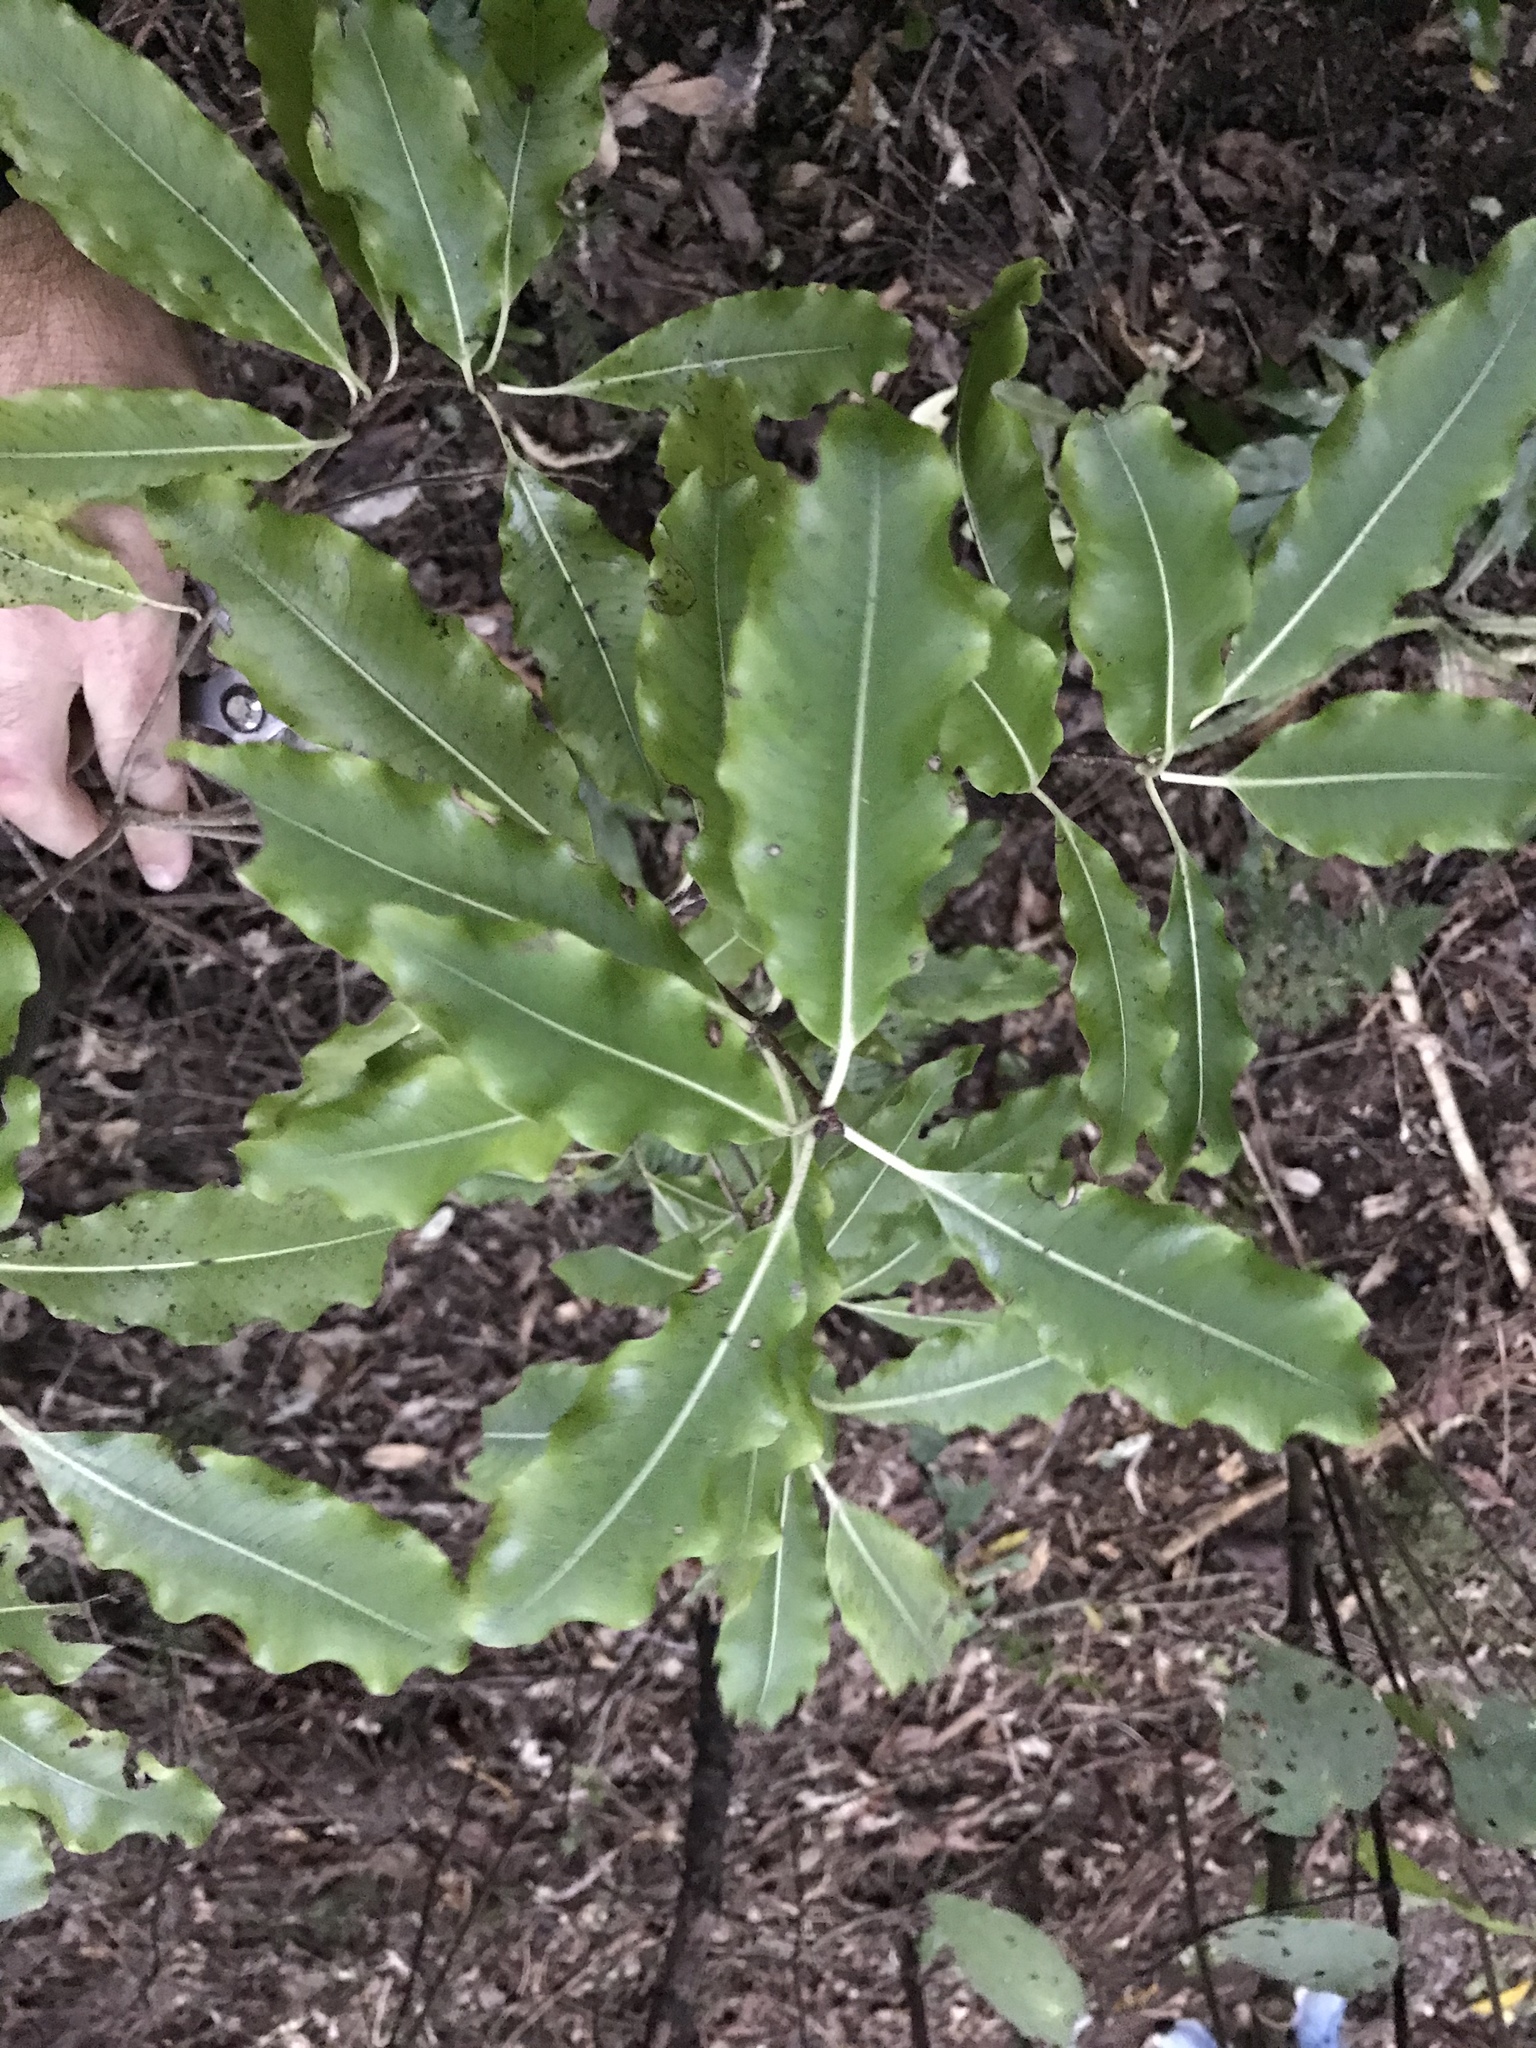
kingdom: Plantae
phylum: Tracheophyta
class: Magnoliopsida
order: Apiales
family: Pittosporaceae
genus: Pittosporum
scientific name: Pittosporum eugenioides
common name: Lemonwood
